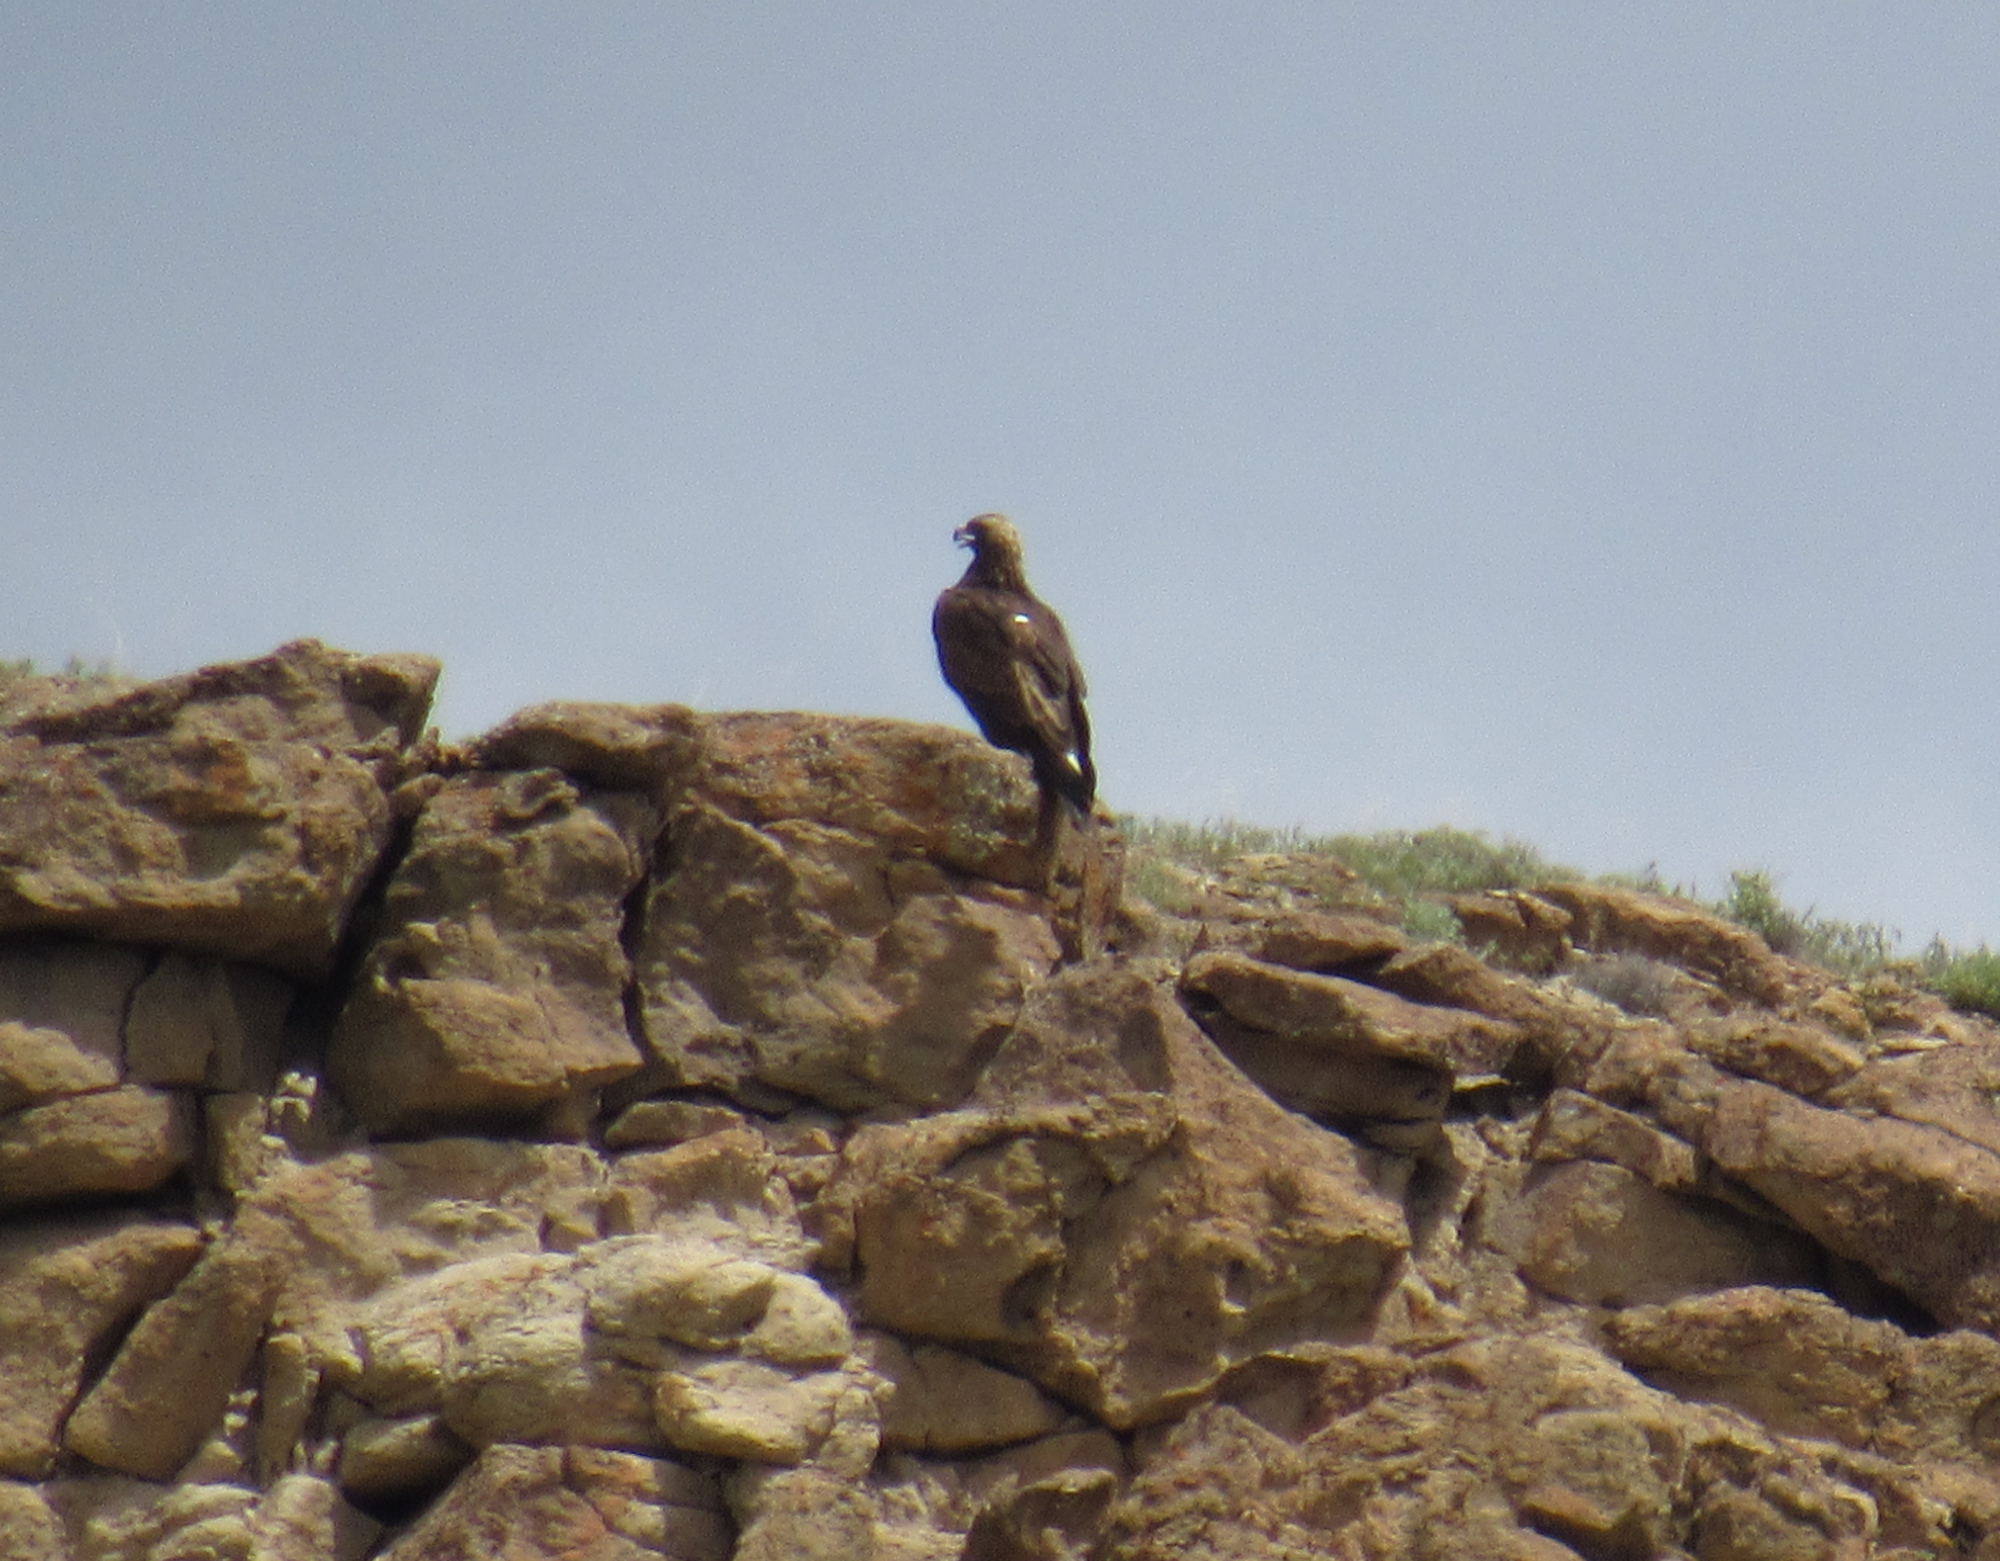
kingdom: Animalia
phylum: Chordata
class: Aves
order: Accipitriformes
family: Accipitridae
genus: Aquila
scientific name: Aquila chrysaetos
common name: Golden eagle
